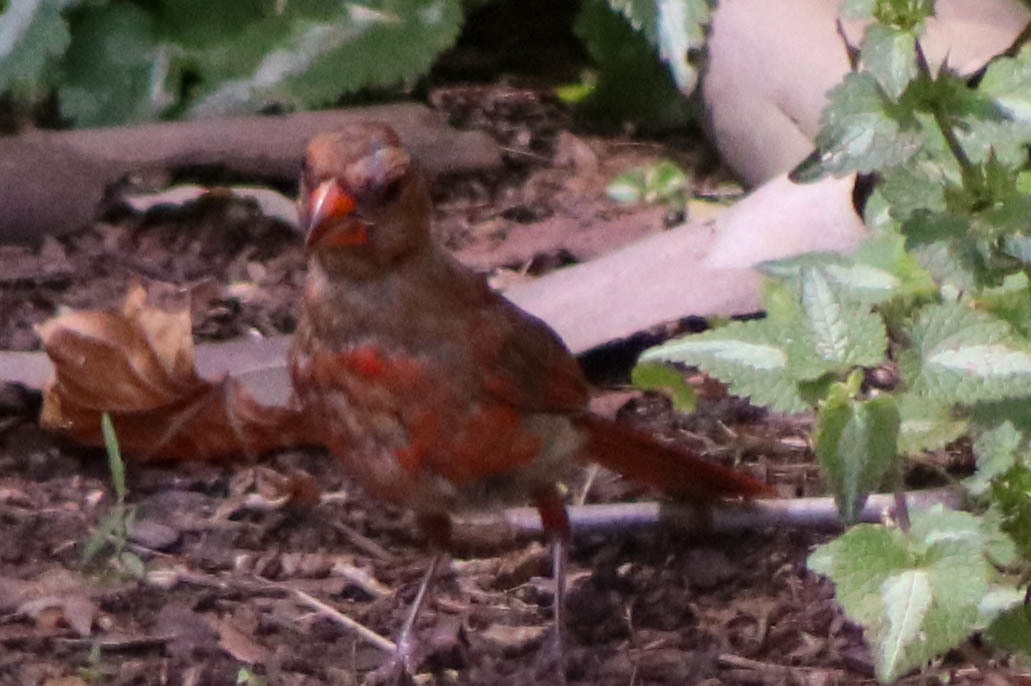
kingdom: Animalia
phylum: Chordata
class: Aves
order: Passeriformes
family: Cardinalidae
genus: Cardinalis
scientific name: Cardinalis cardinalis
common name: Northern cardinal
